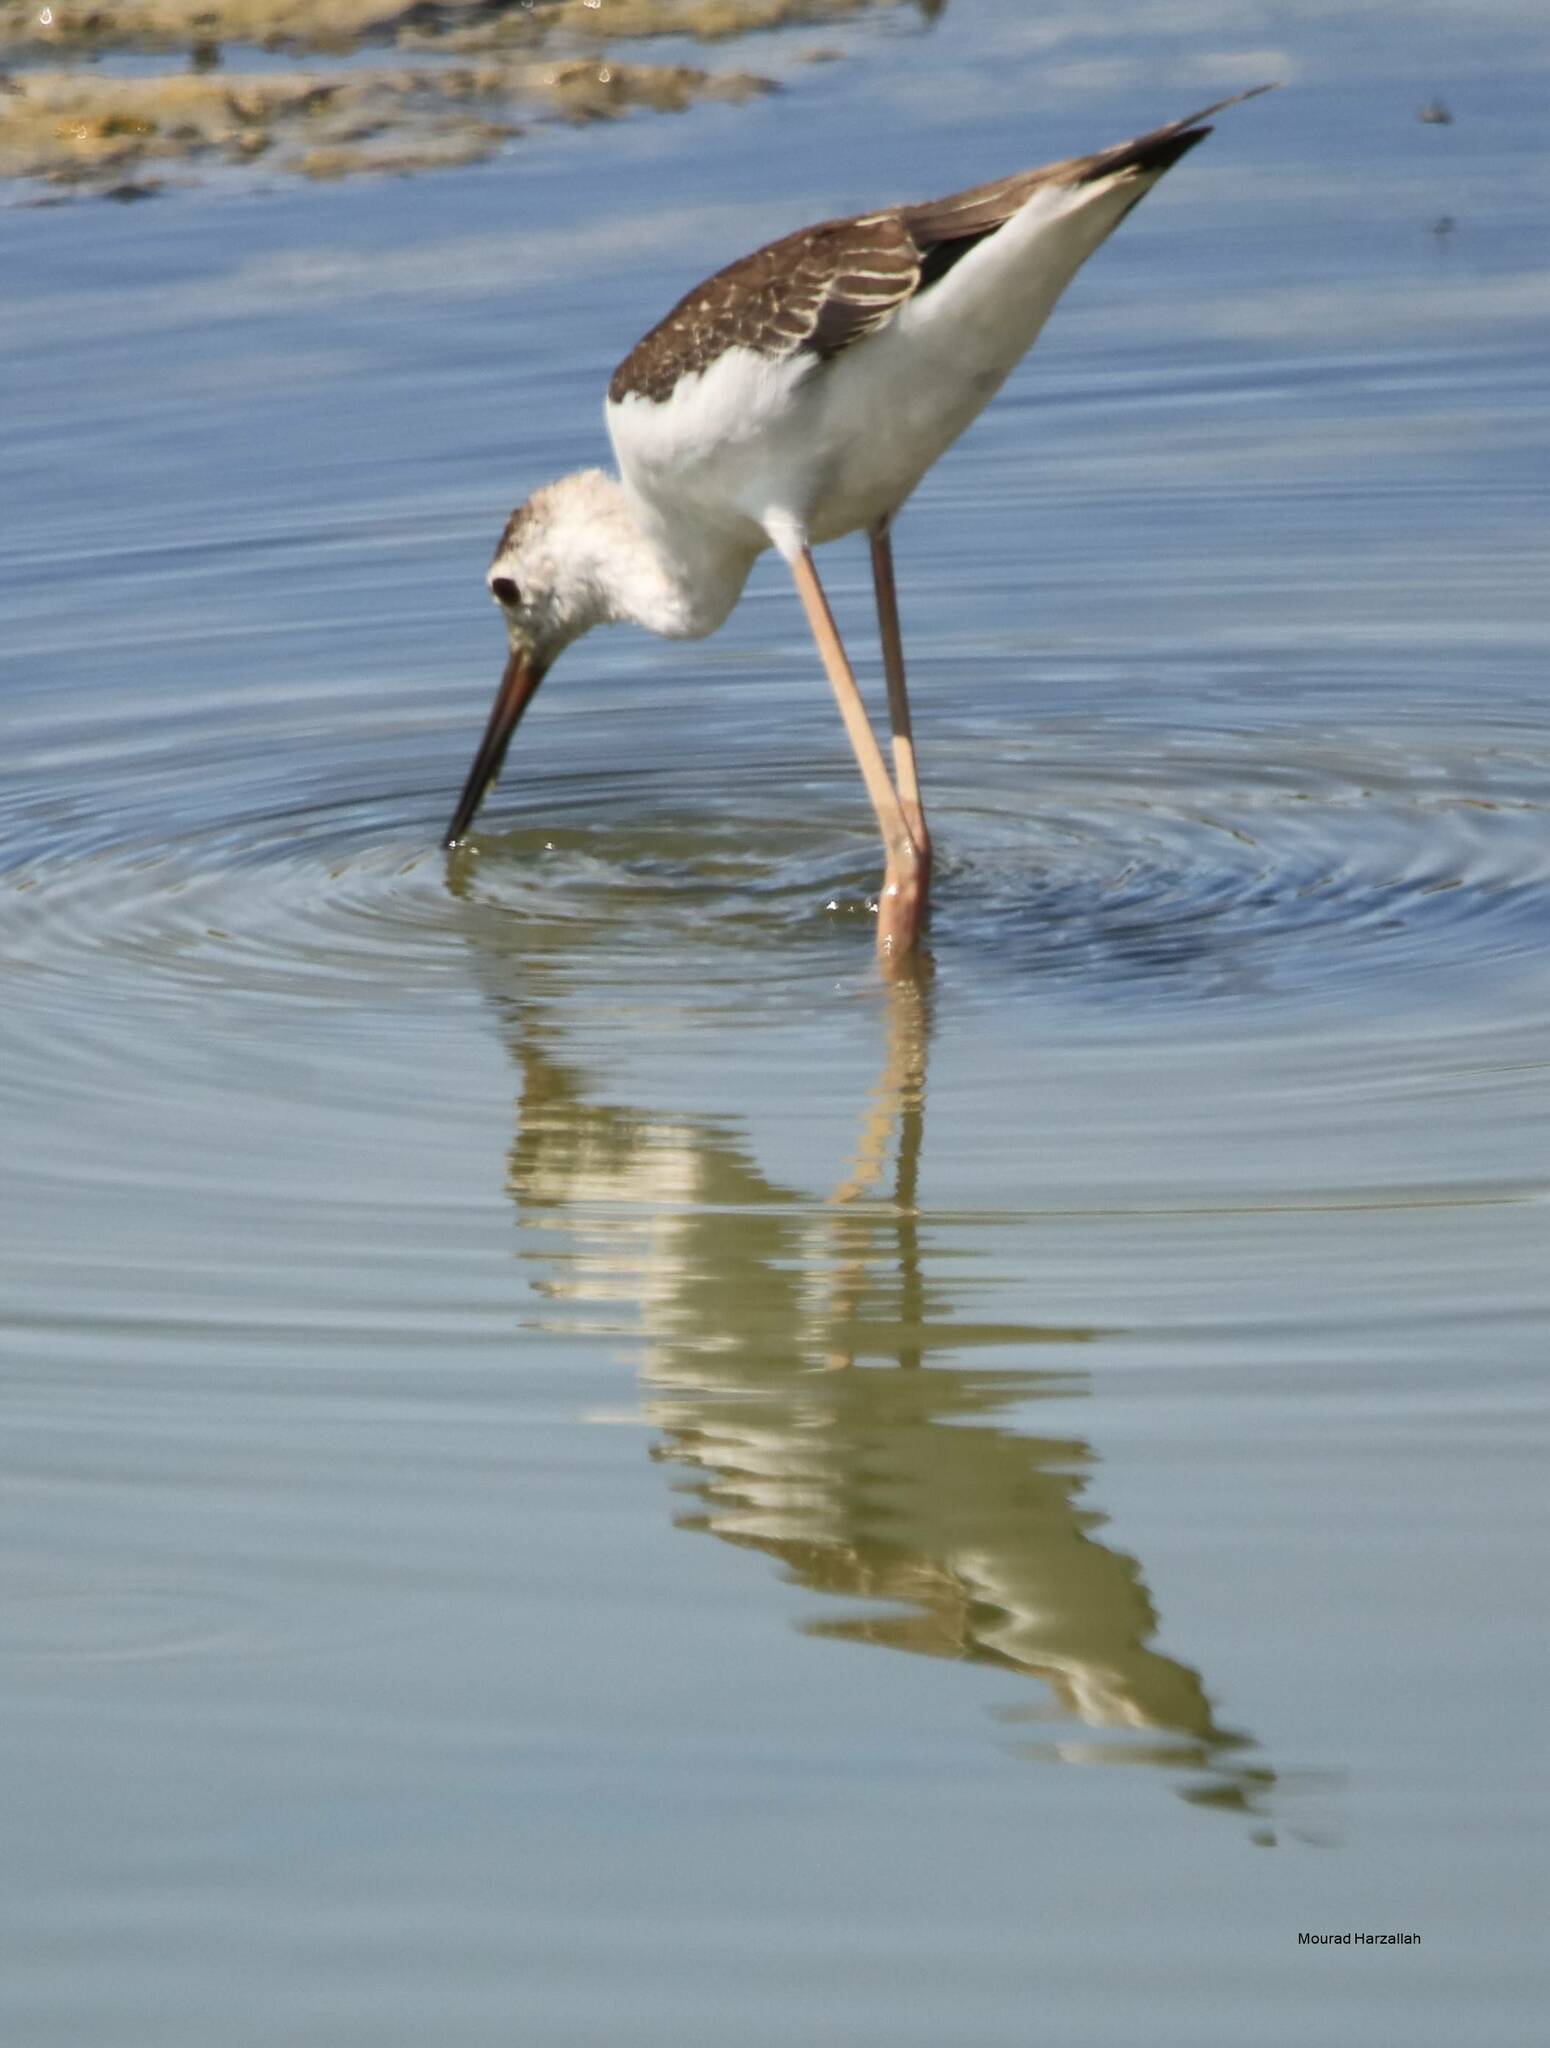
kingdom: Animalia
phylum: Chordata
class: Aves
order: Charadriiformes
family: Recurvirostridae
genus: Himantopus
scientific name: Himantopus himantopus
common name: Black-winged stilt
